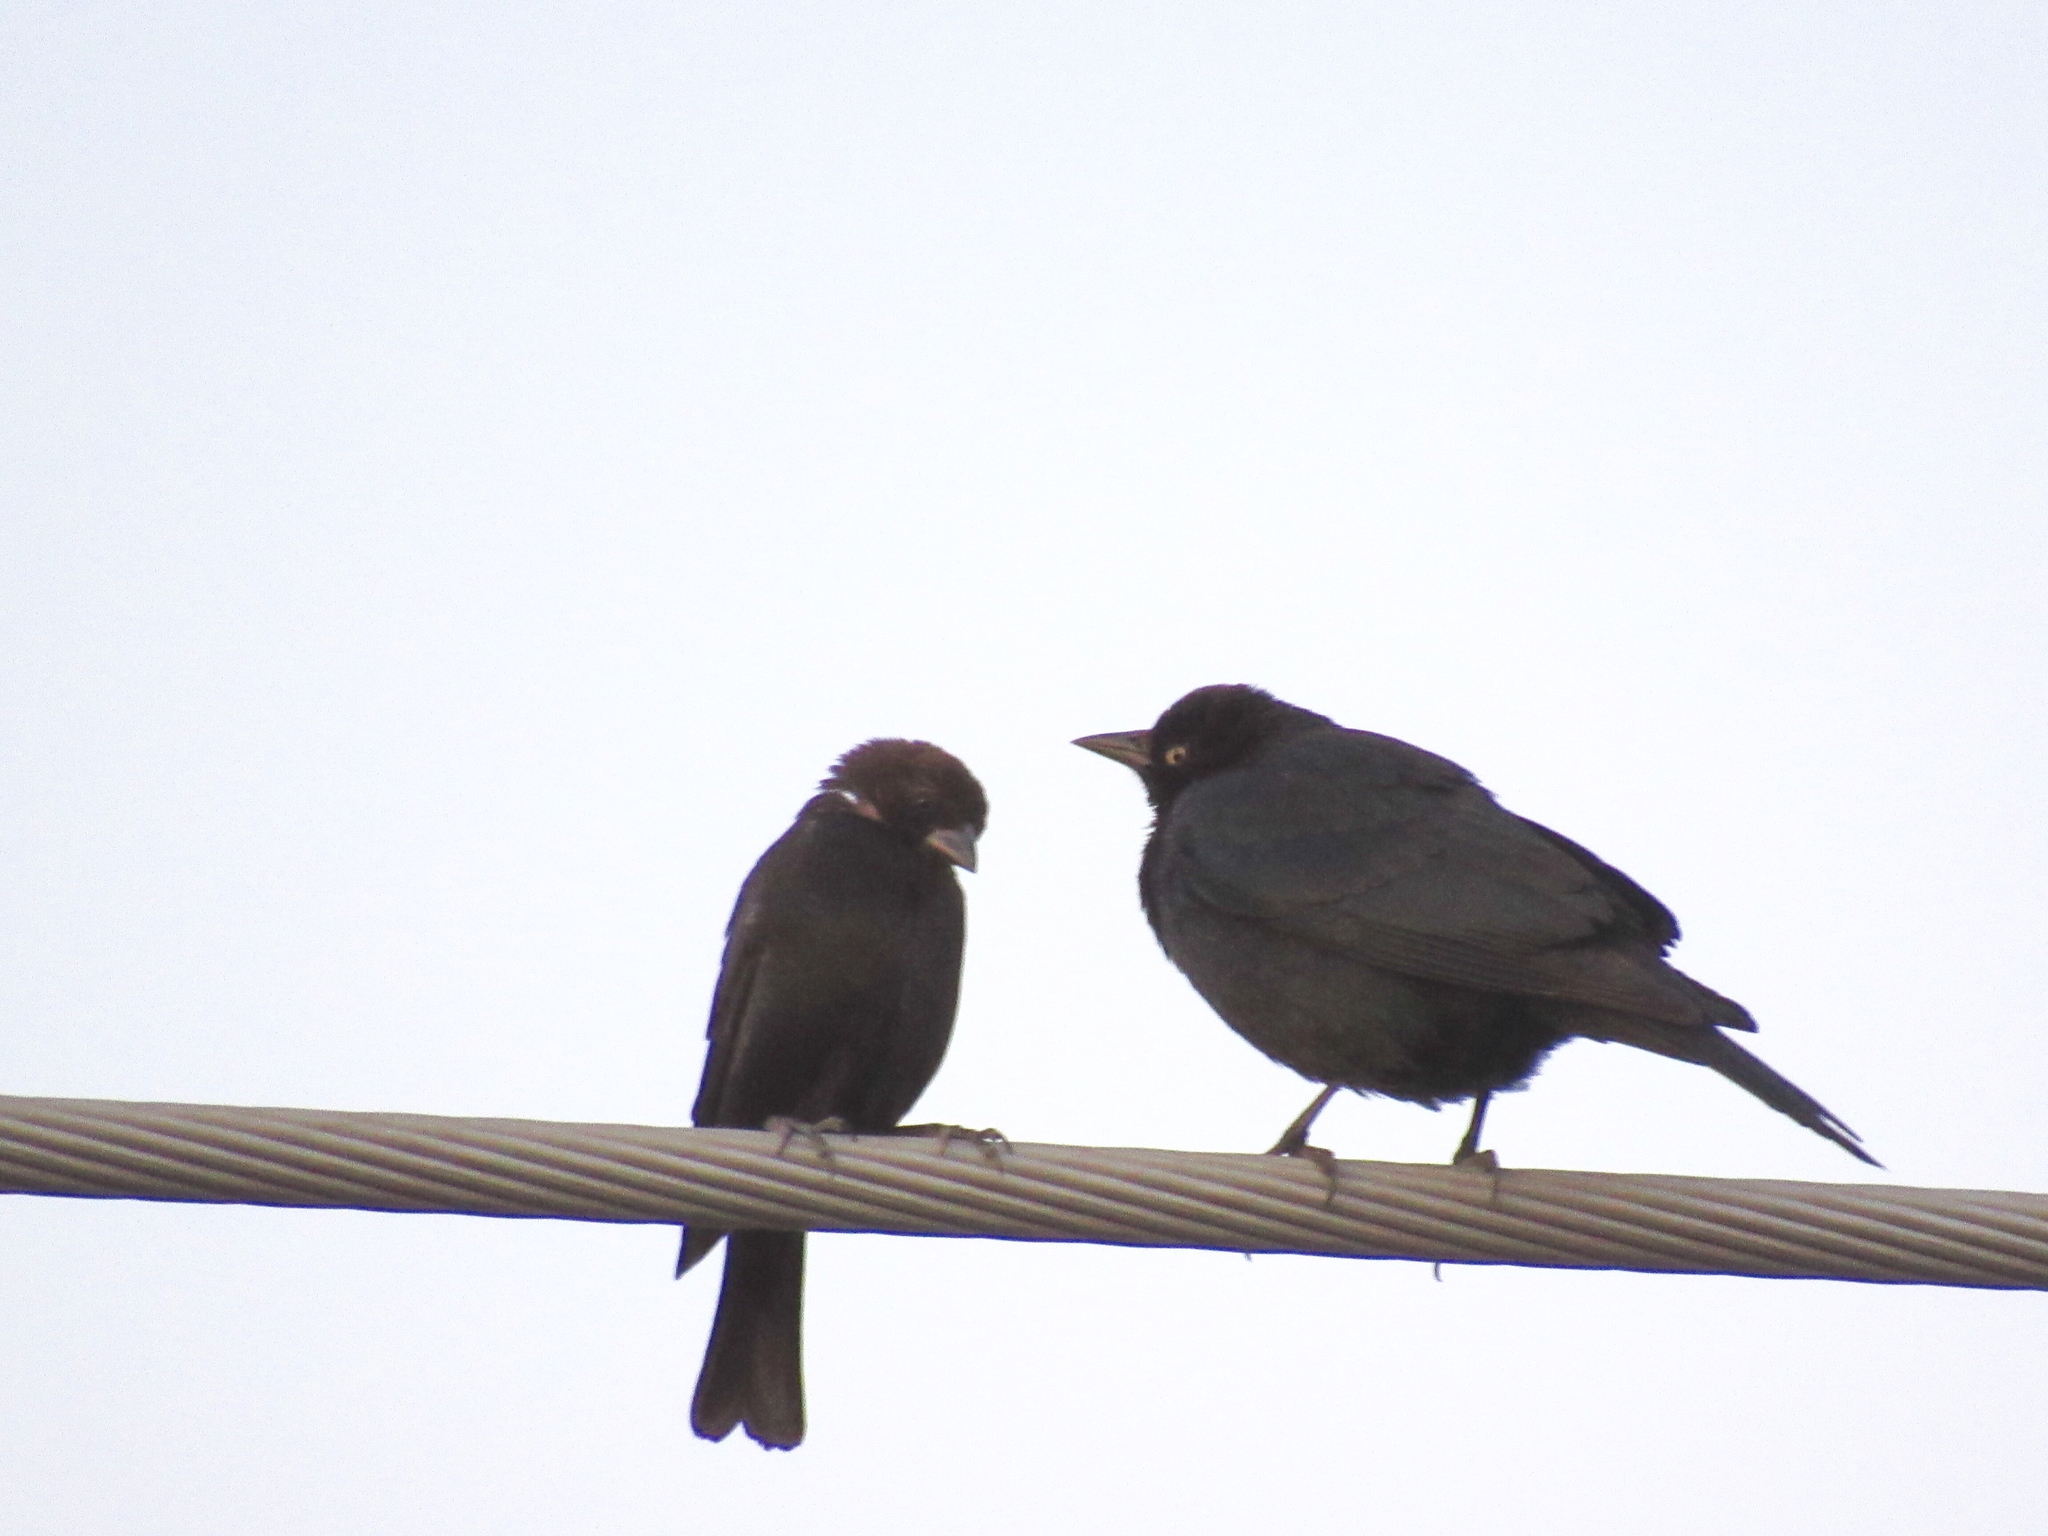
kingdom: Animalia
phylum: Chordata
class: Aves
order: Passeriformes
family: Icteridae
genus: Molothrus
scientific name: Molothrus ater
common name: Brown-headed cowbird
